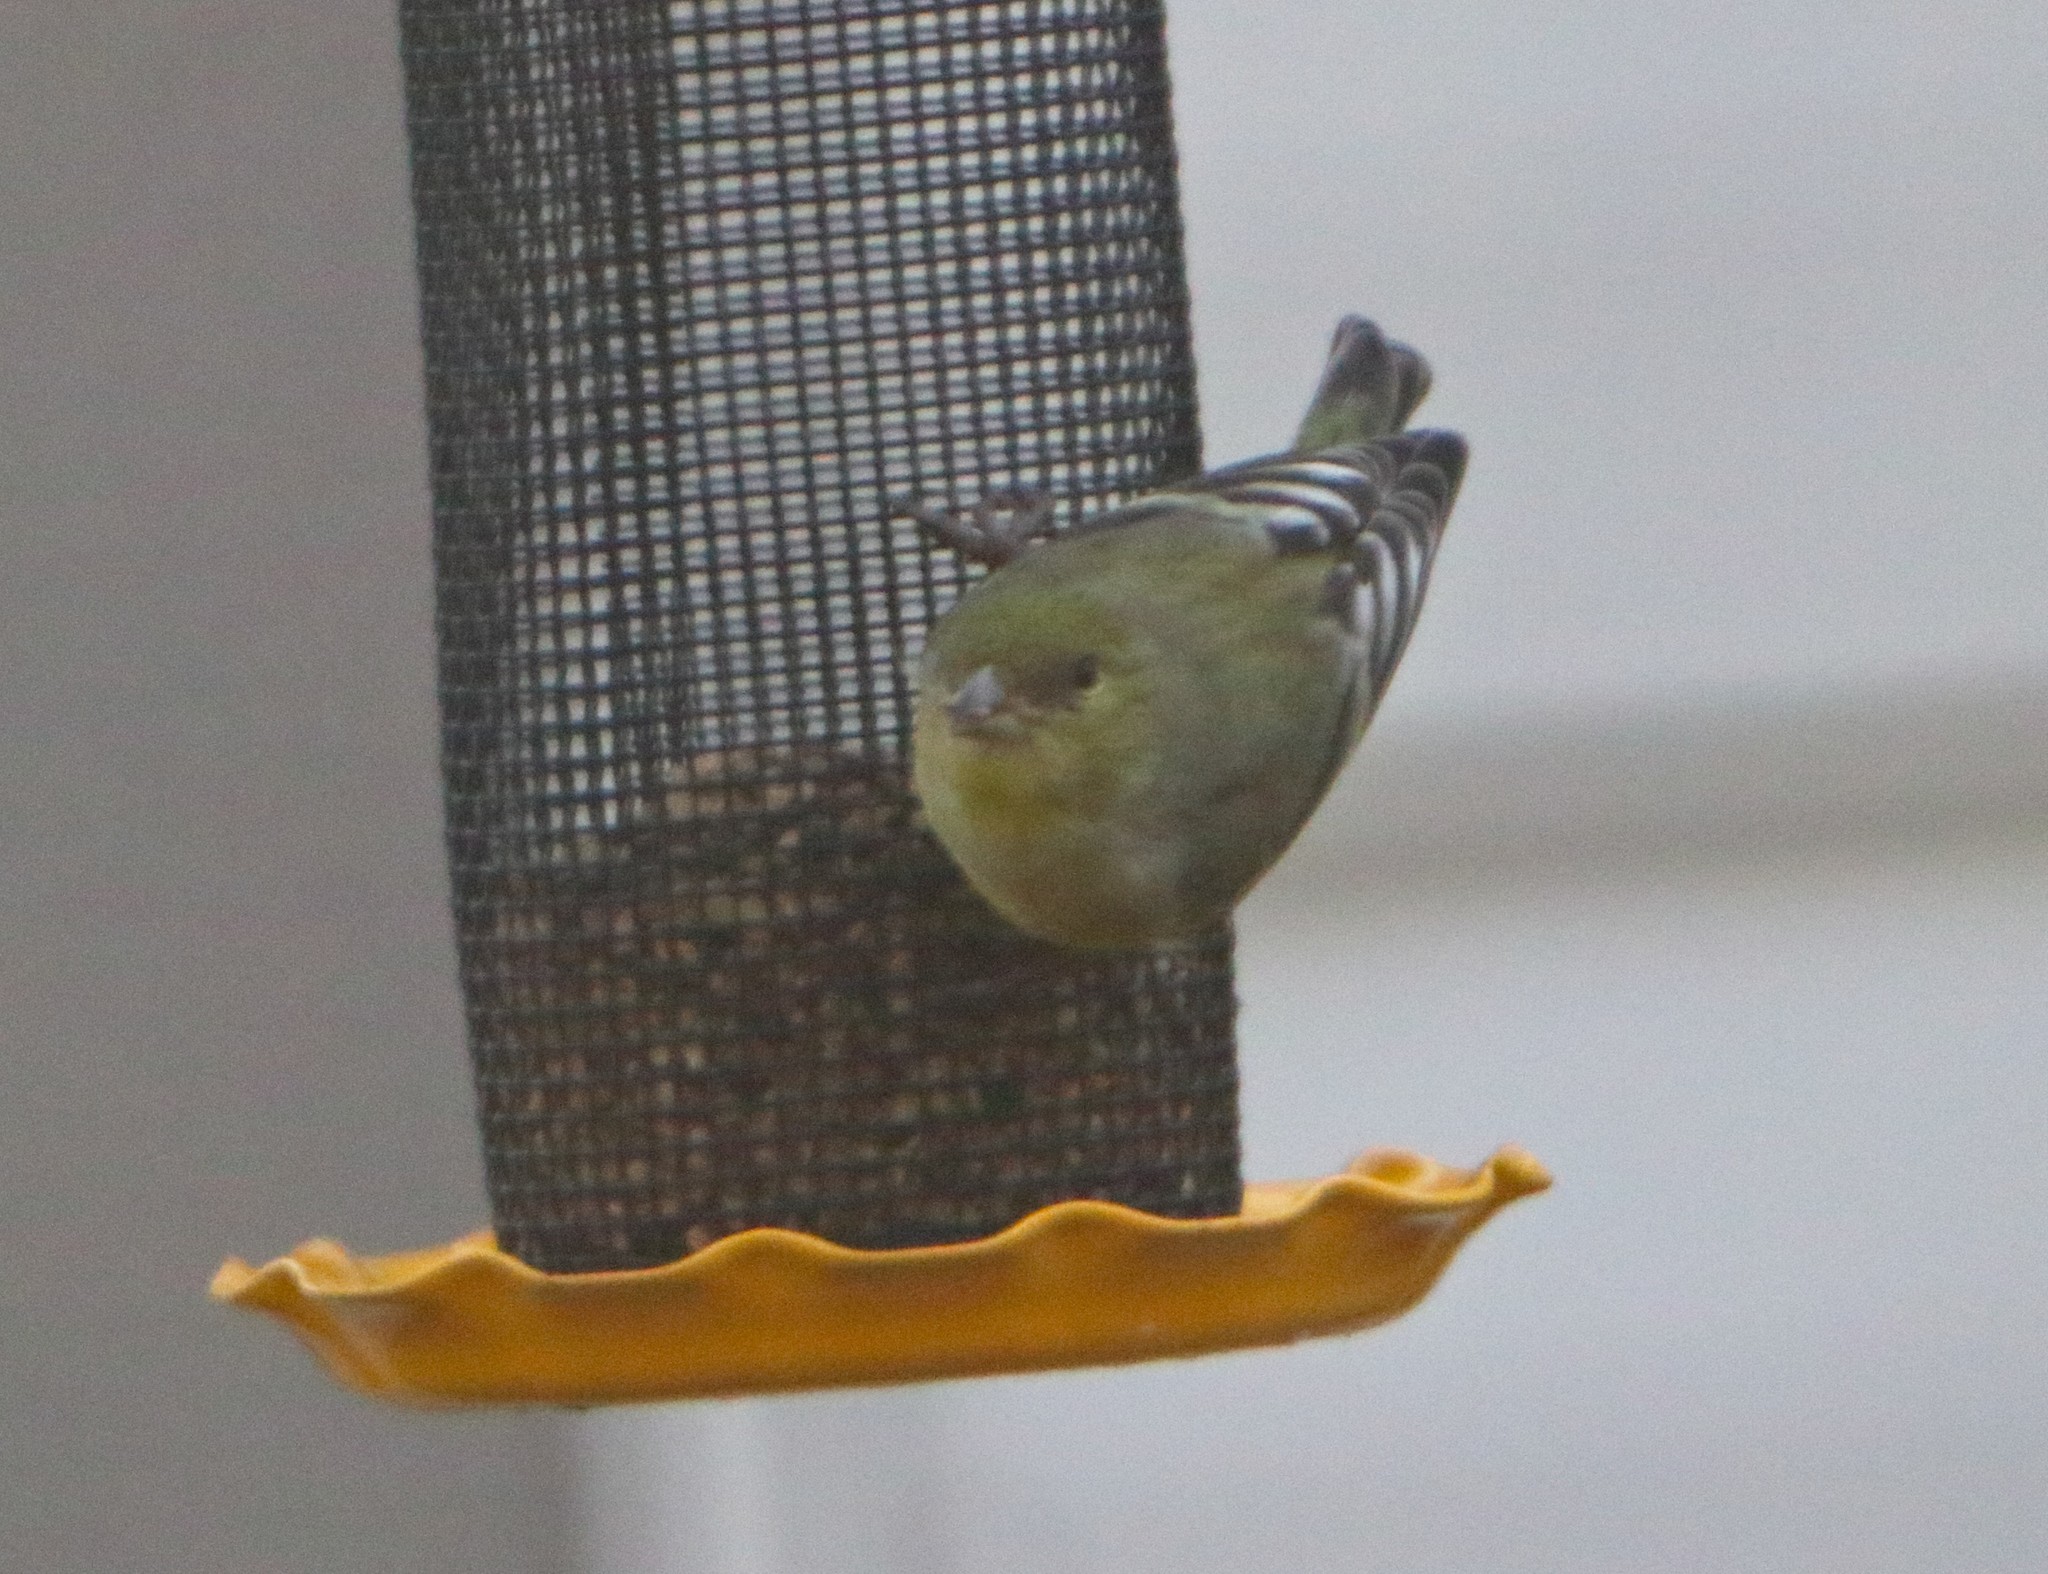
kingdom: Animalia
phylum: Chordata
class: Aves
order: Passeriformes
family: Fringillidae
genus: Spinus
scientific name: Spinus psaltria
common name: Lesser goldfinch
